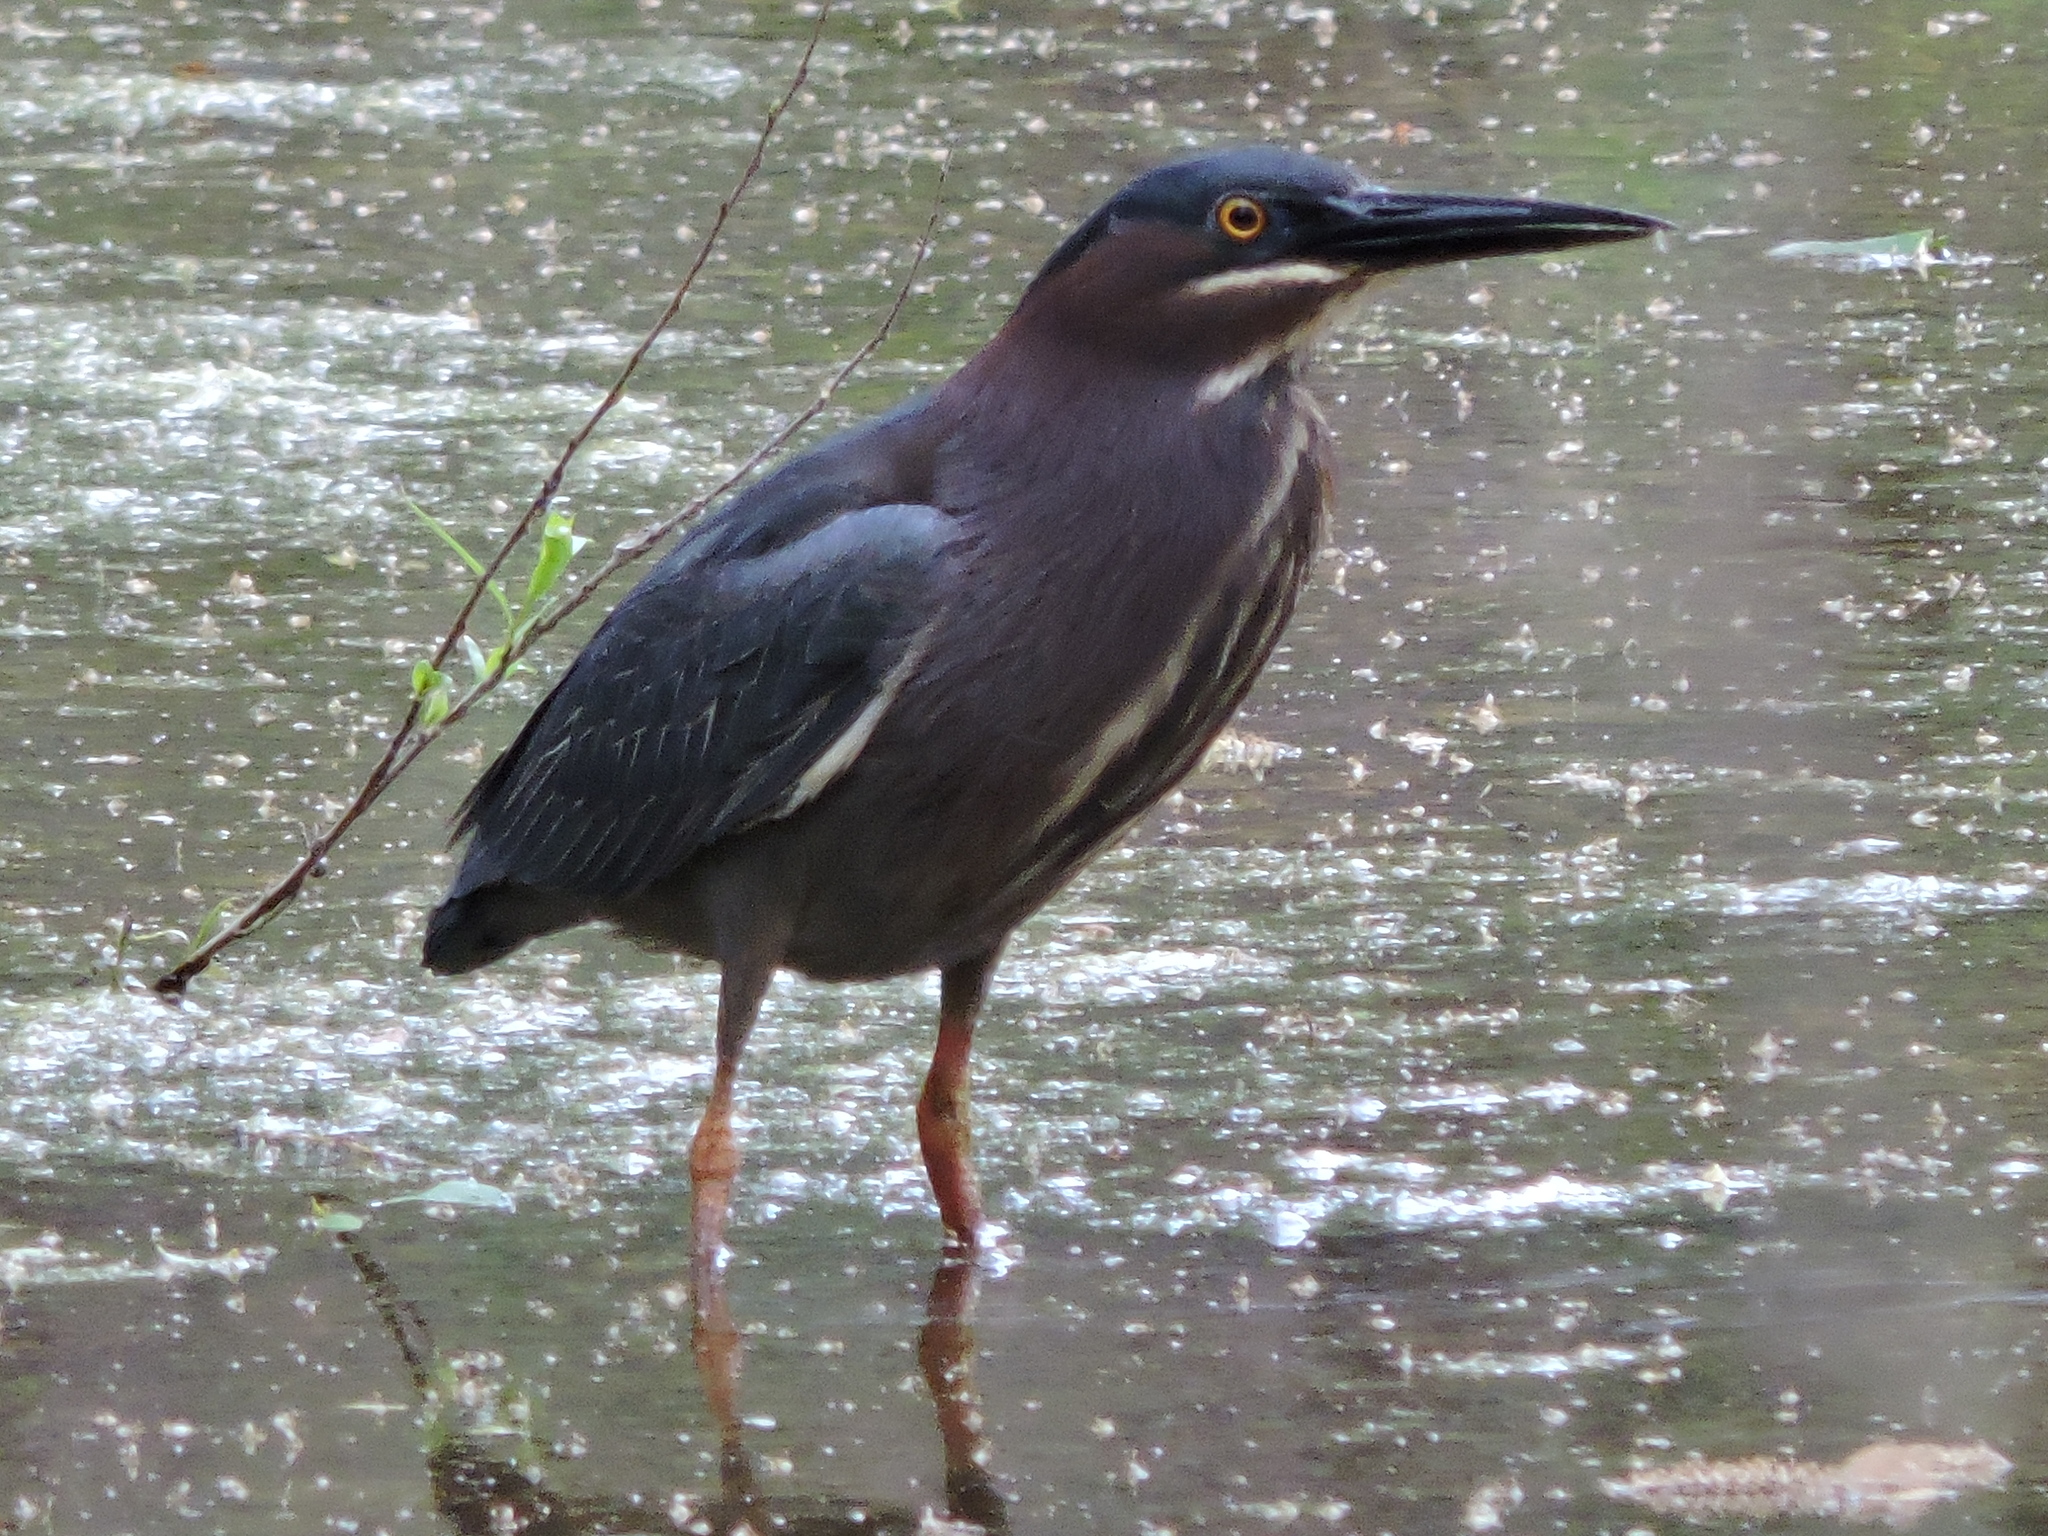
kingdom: Animalia
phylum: Chordata
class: Aves
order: Pelecaniformes
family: Ardeidae
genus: Butorides
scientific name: Butorides virescens
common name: Green heron
